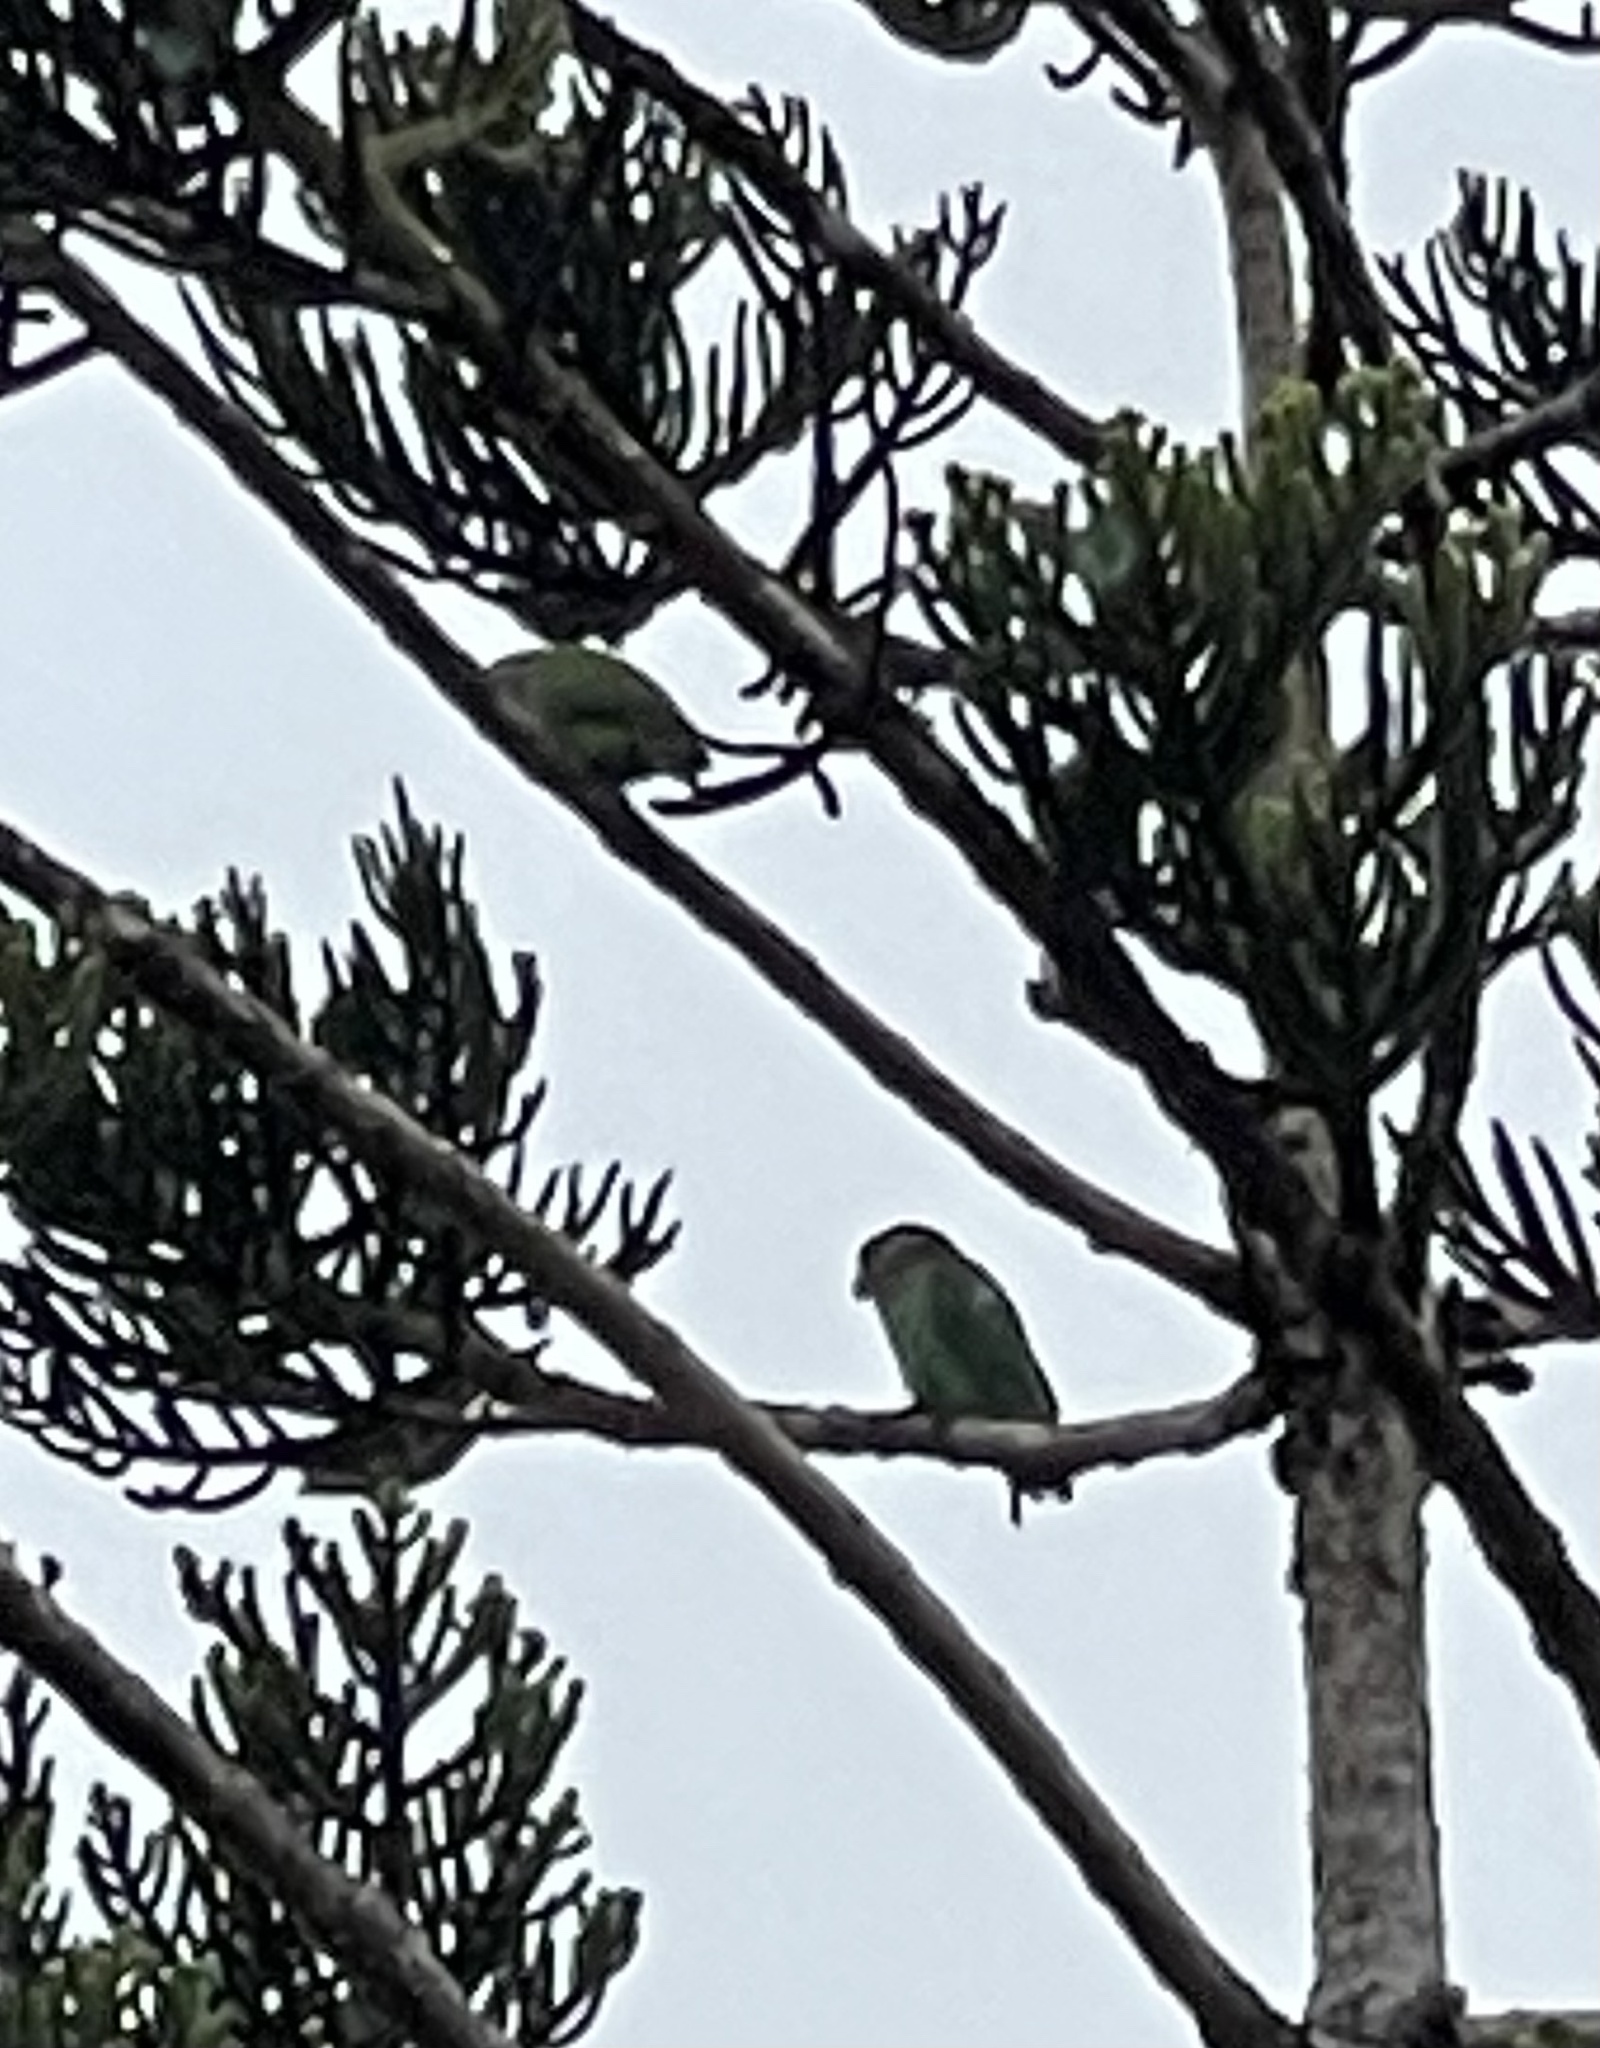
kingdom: Animalia
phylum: Chordata
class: Aves
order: Psittaciformes
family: Psittacidae
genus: Poicephalus
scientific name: Poicephalus cryptoxanthus
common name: Brown-headed parrot
